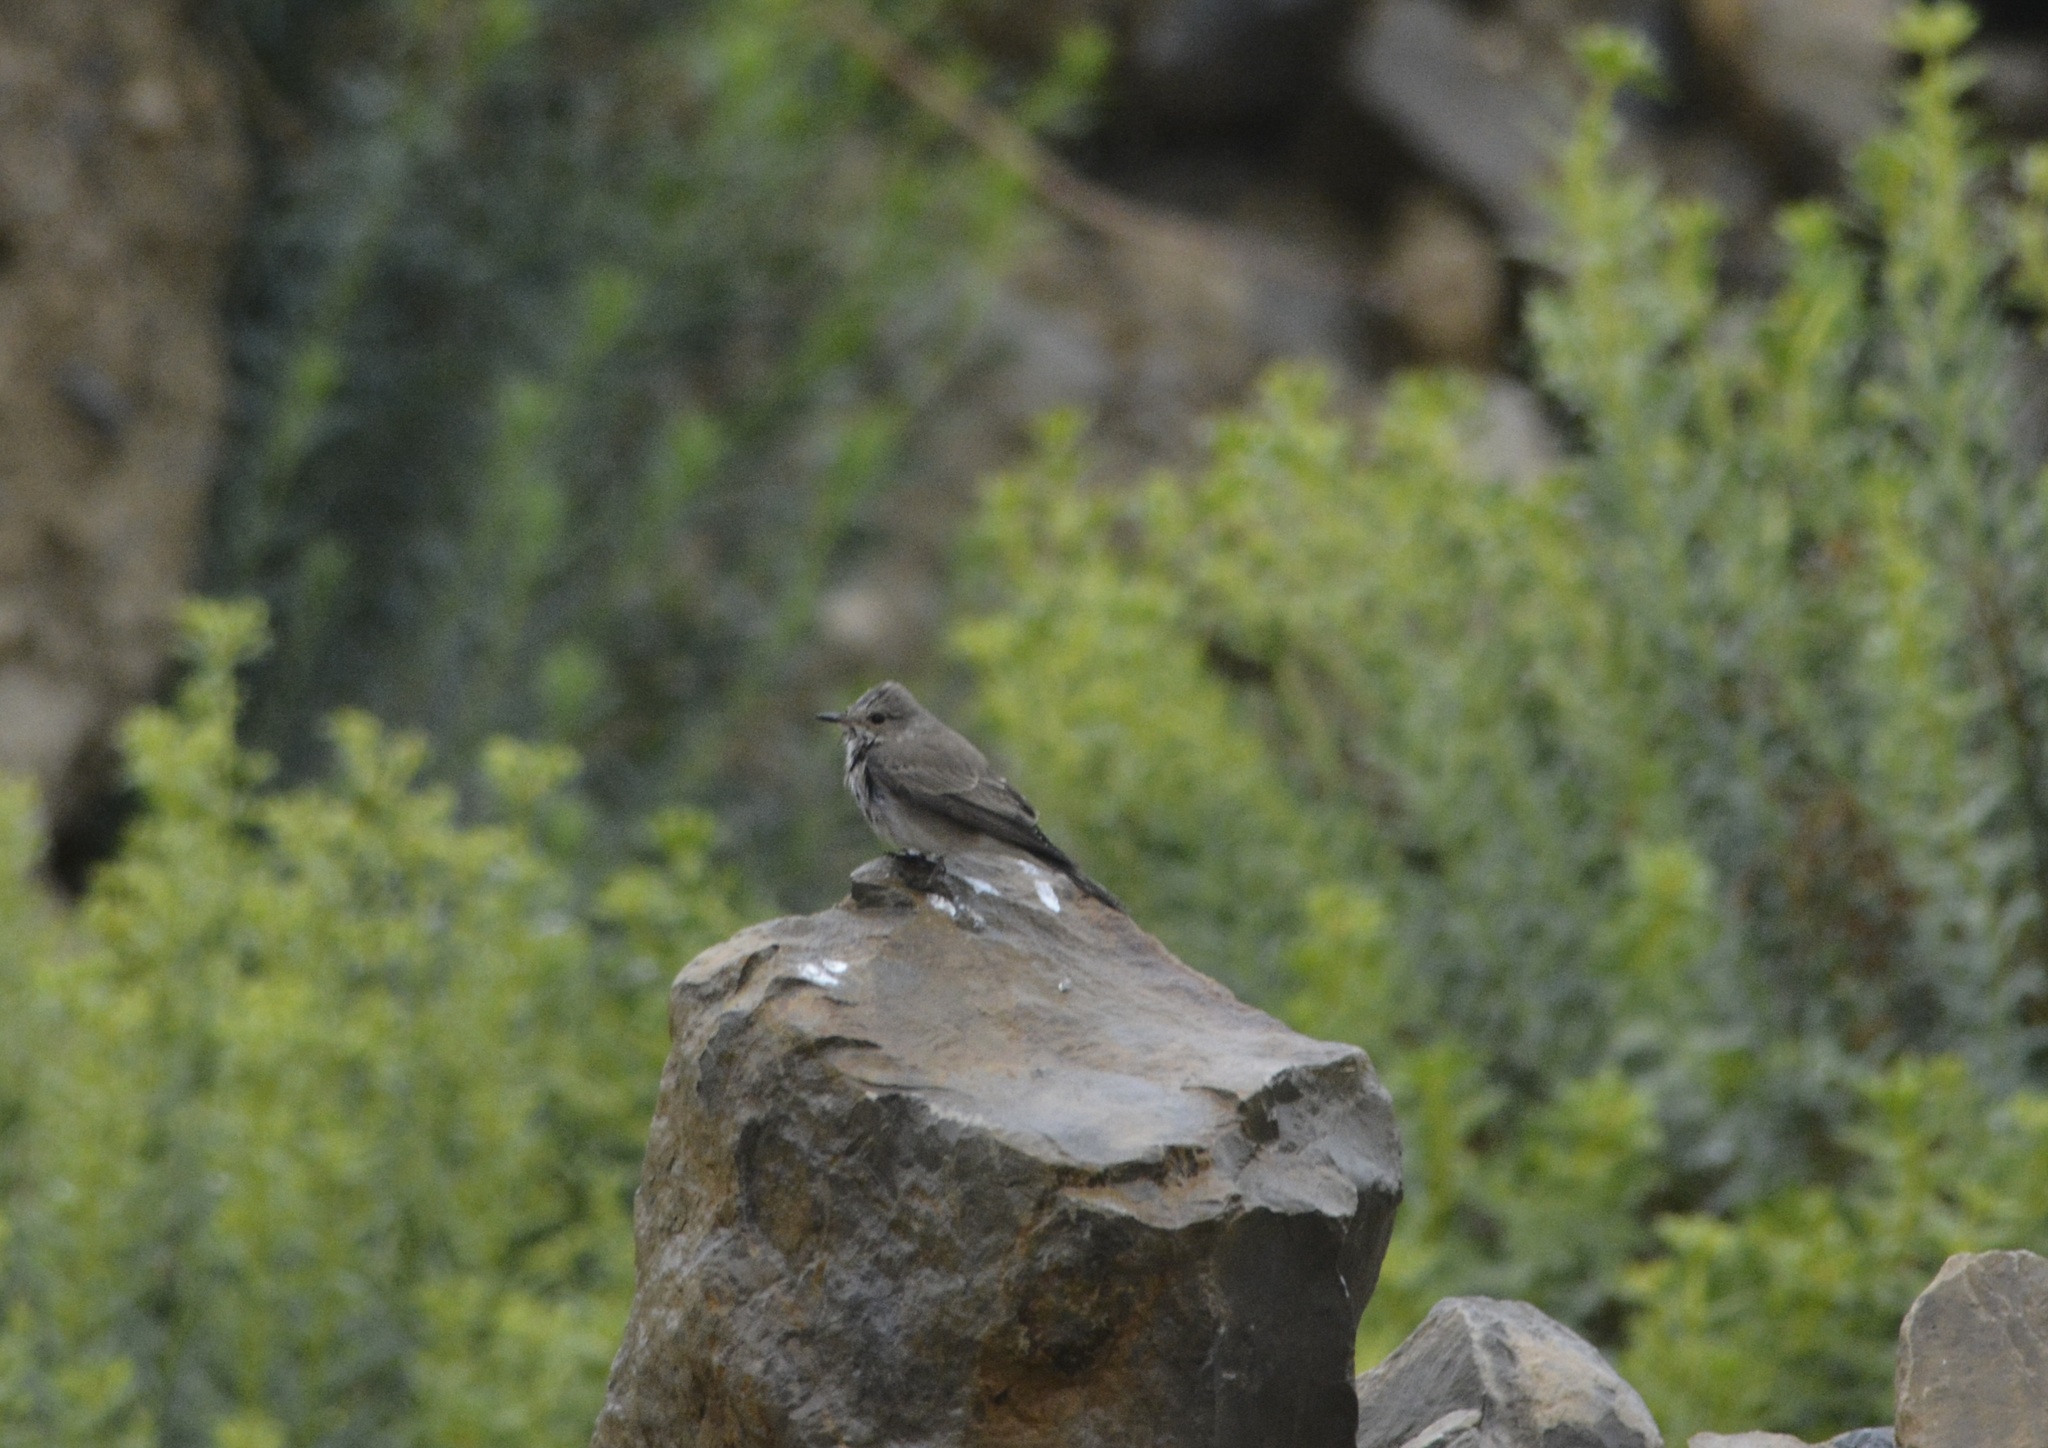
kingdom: Animalia
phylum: Chordata
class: Aves
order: Passeriformes
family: Muscicapidae
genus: Muscicapa
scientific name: Muscicapa striata
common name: Spotted flycatcher
